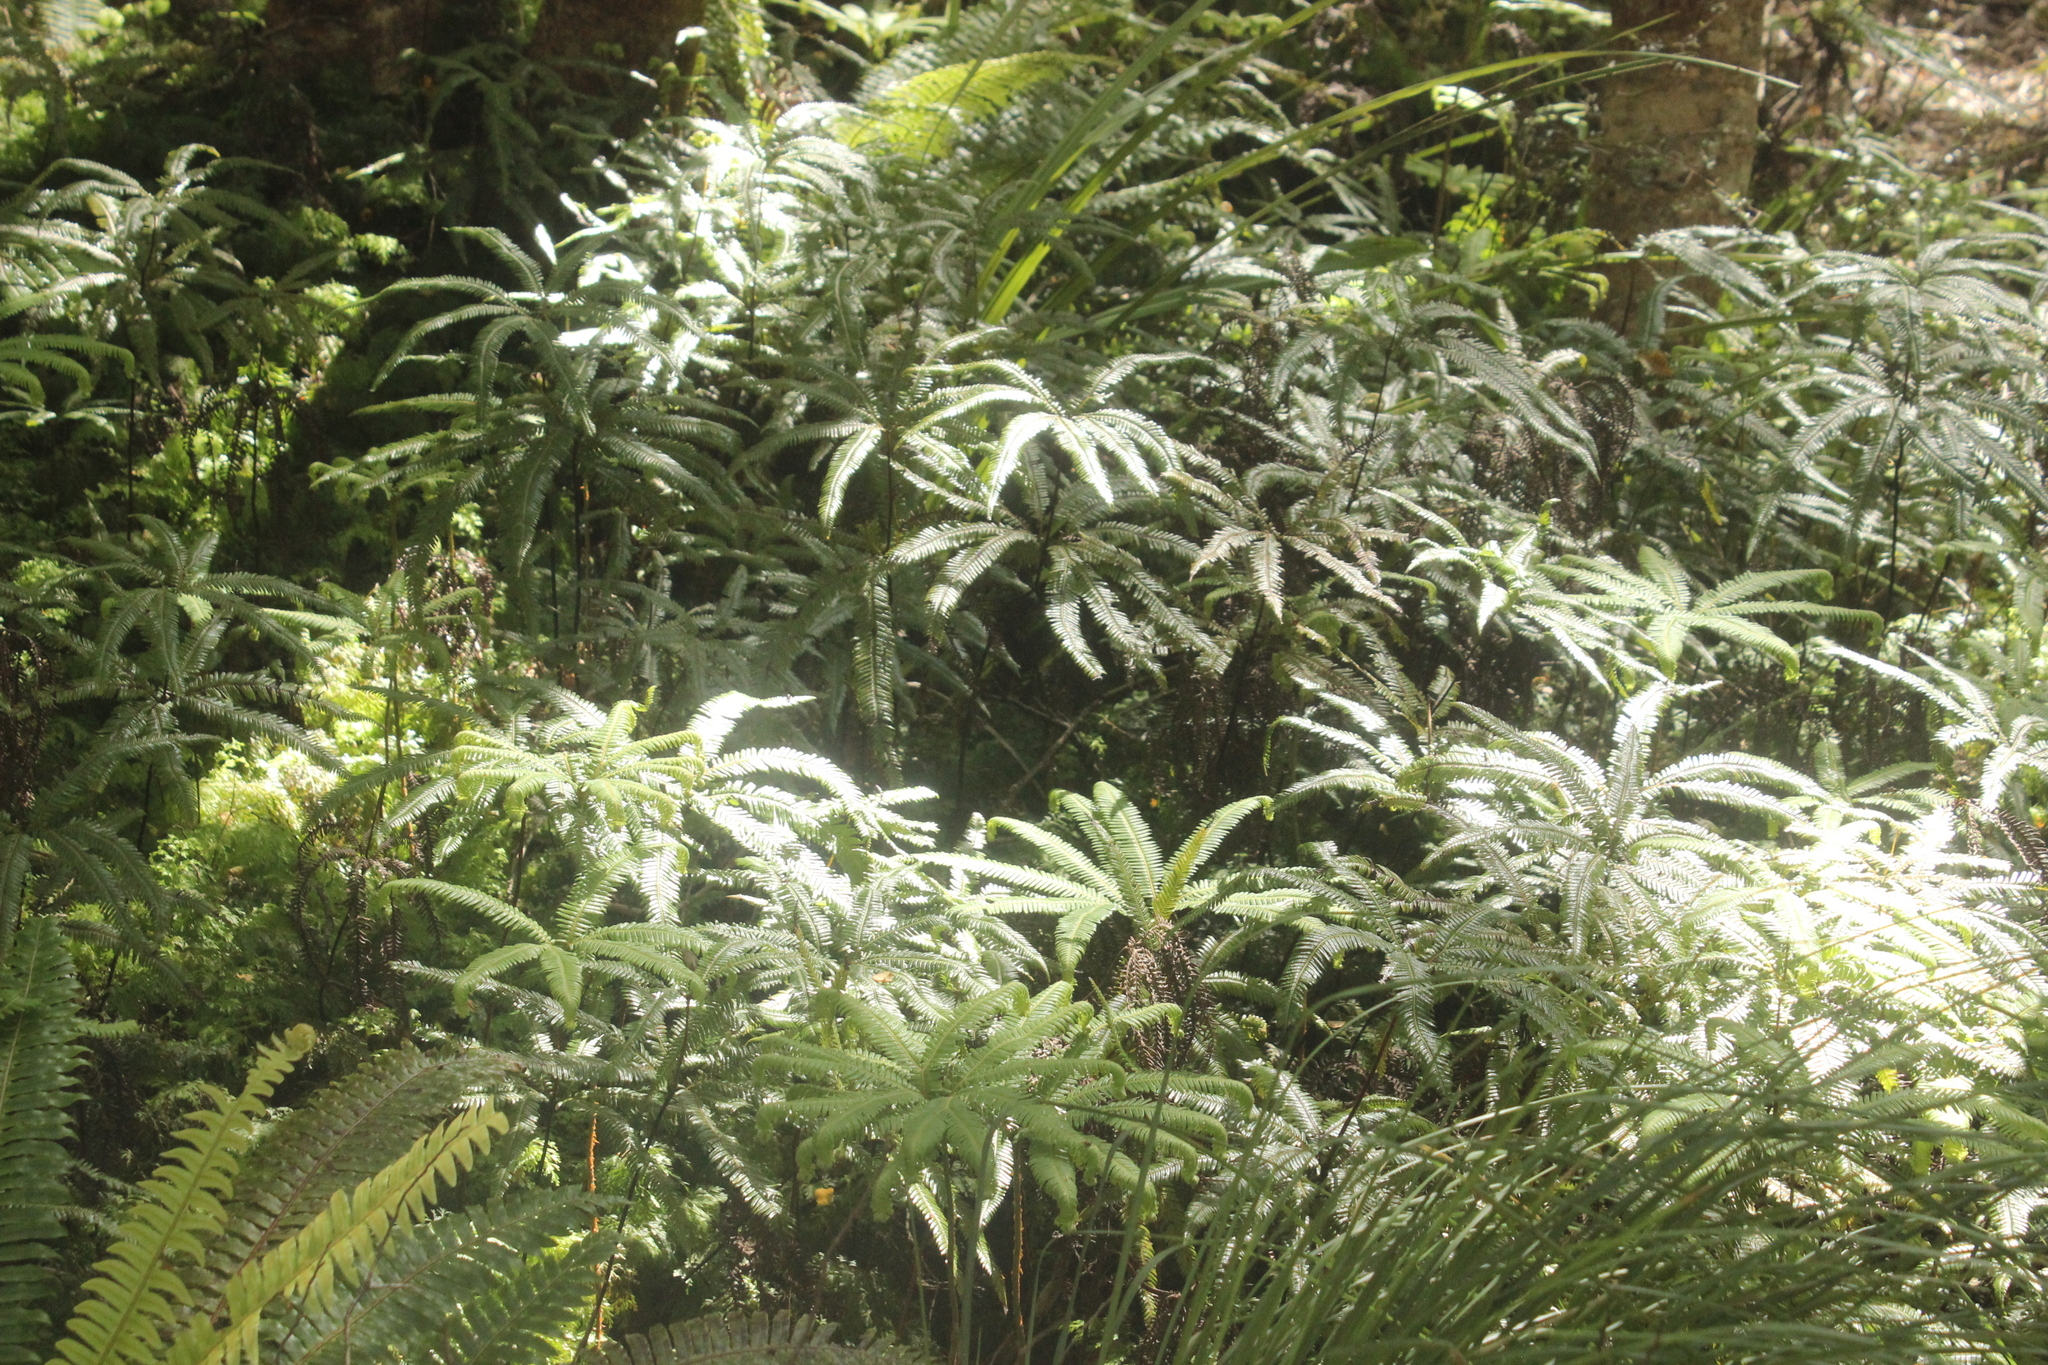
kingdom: Plantae
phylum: Tracheophyta
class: Polypodiopsida
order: Gleicheniales
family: Gleicheniaceae
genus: Sticherus
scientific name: Sticherus cunninghamii
